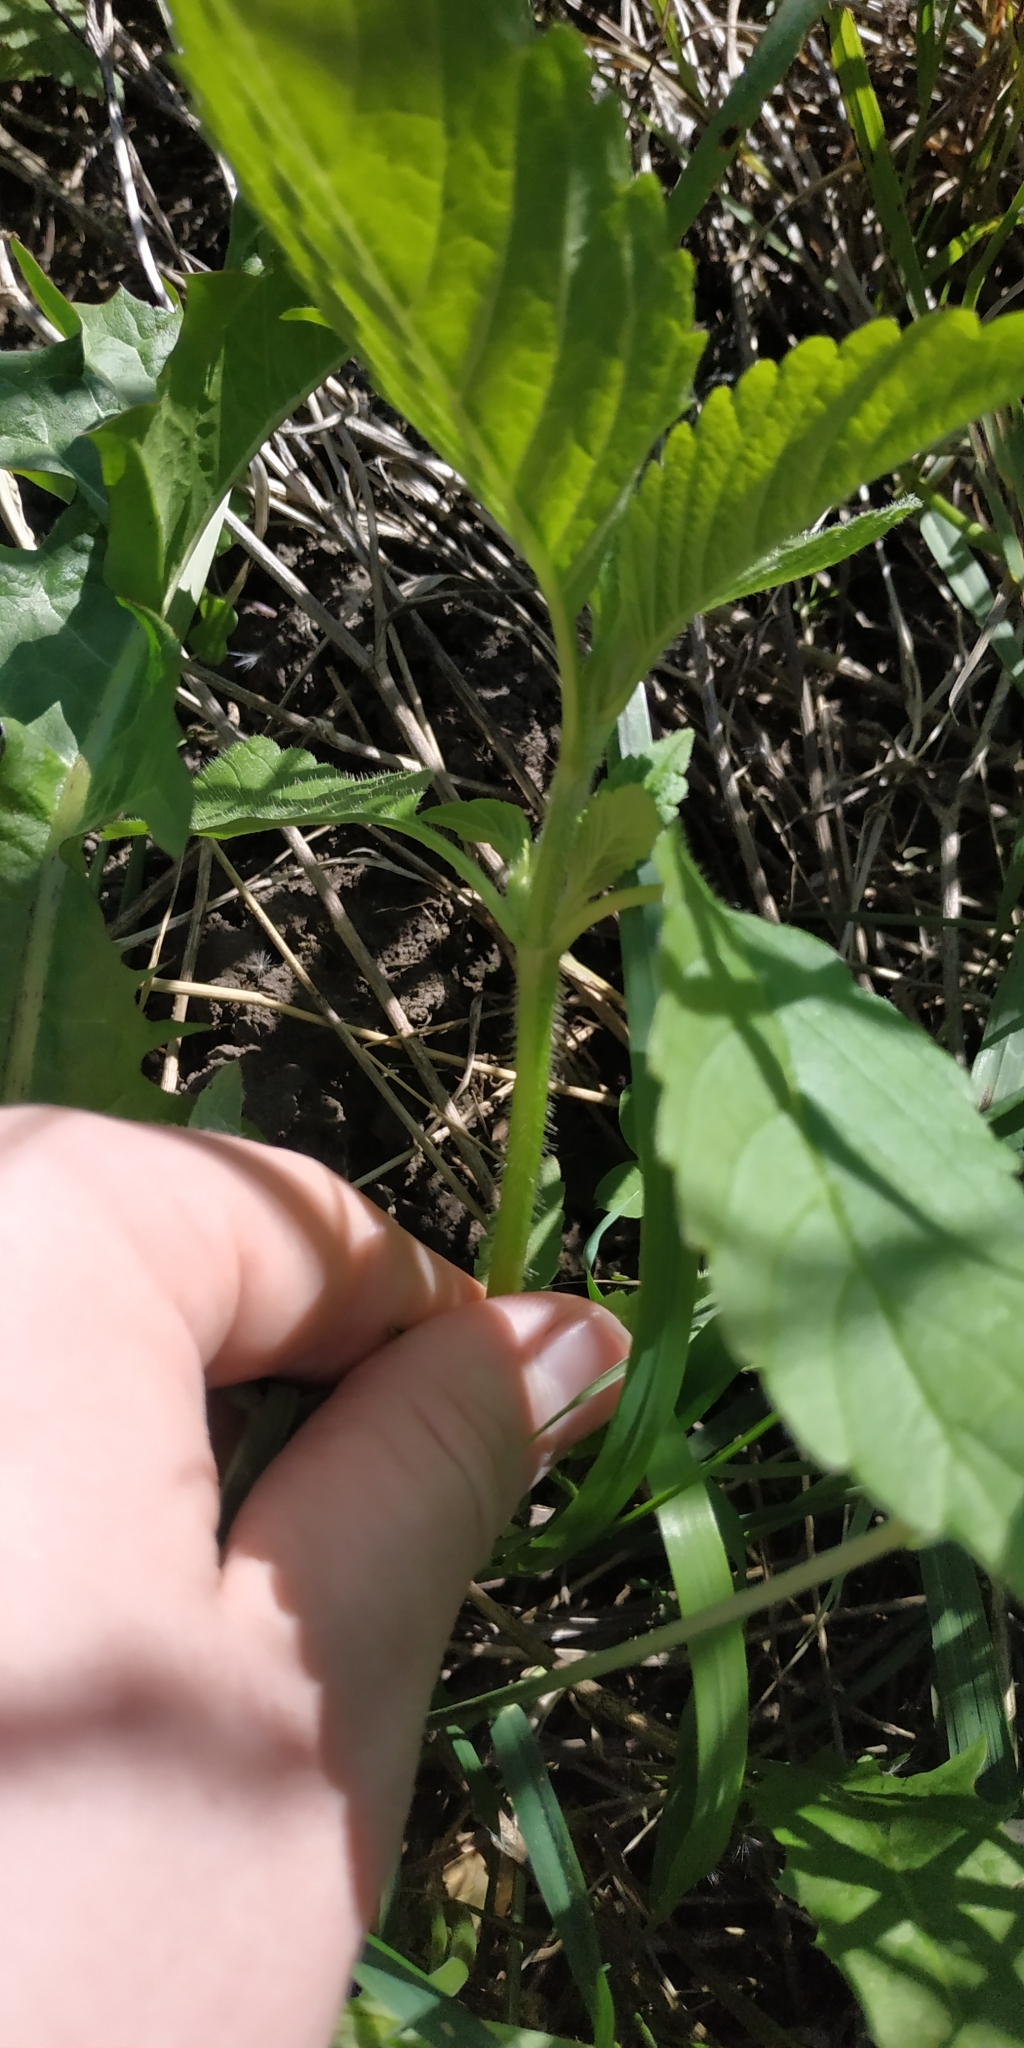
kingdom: Plantae
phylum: Tracheophyta
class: Magnoliopsida
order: Lamiales
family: Lamiaceae
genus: Galeopsis
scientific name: Galeopsis
